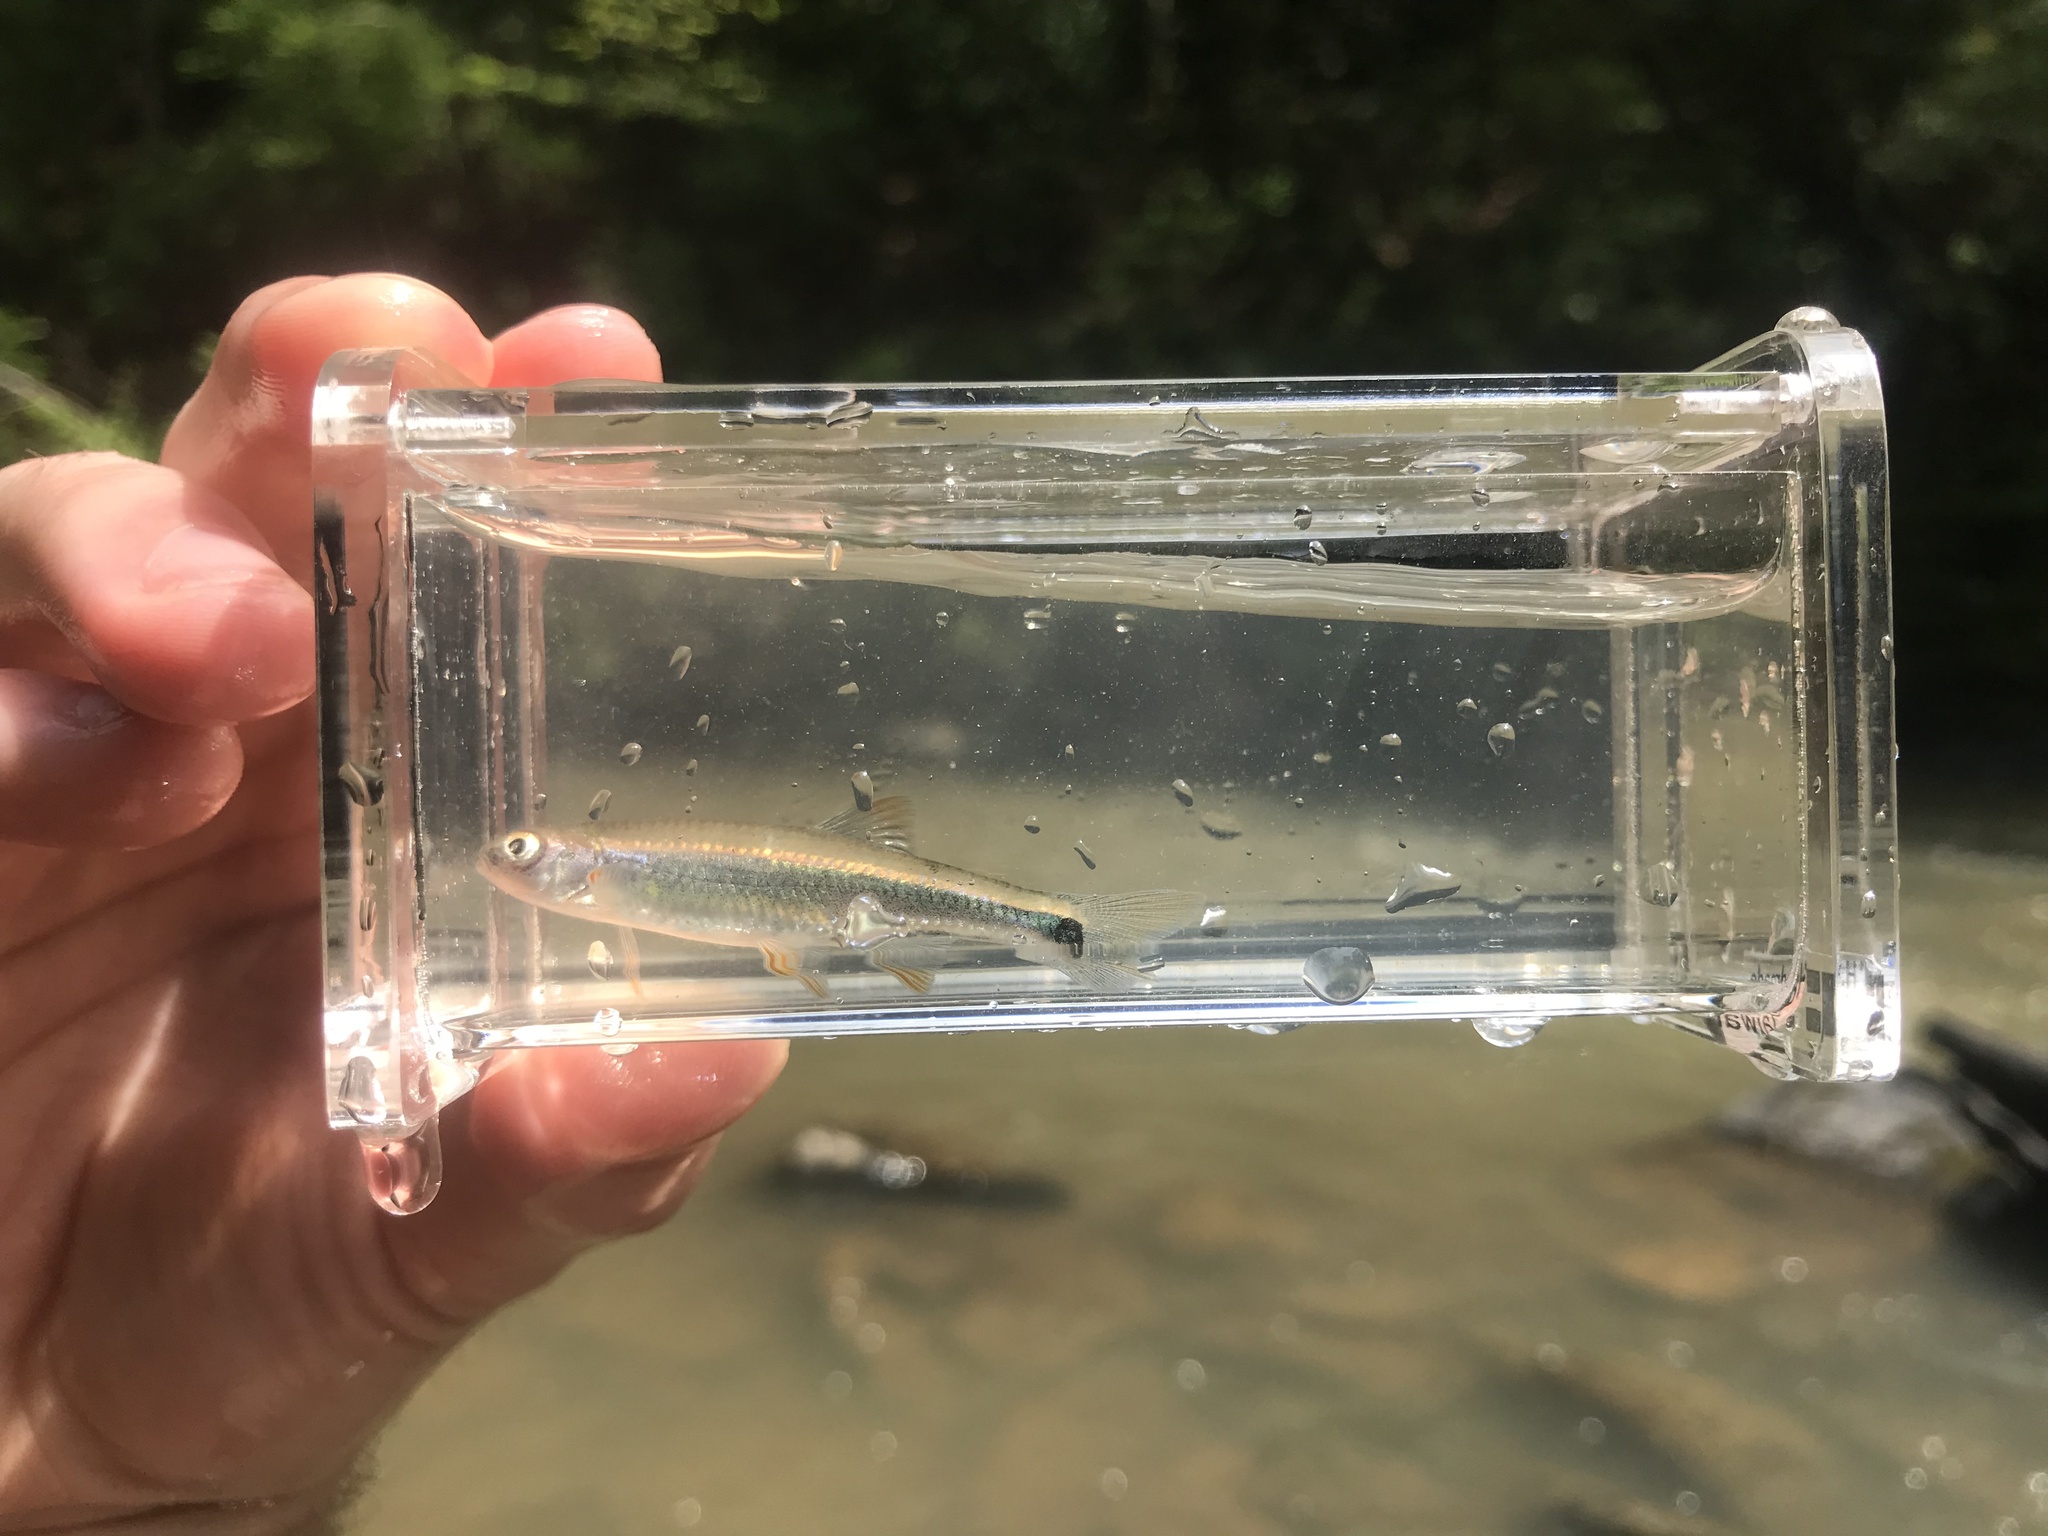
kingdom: Animalia
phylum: Chordata
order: Cypriniformes
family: Cyprinidae
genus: Cyprinella
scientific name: Cyprinella trichroistia
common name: Tricolor shiner
